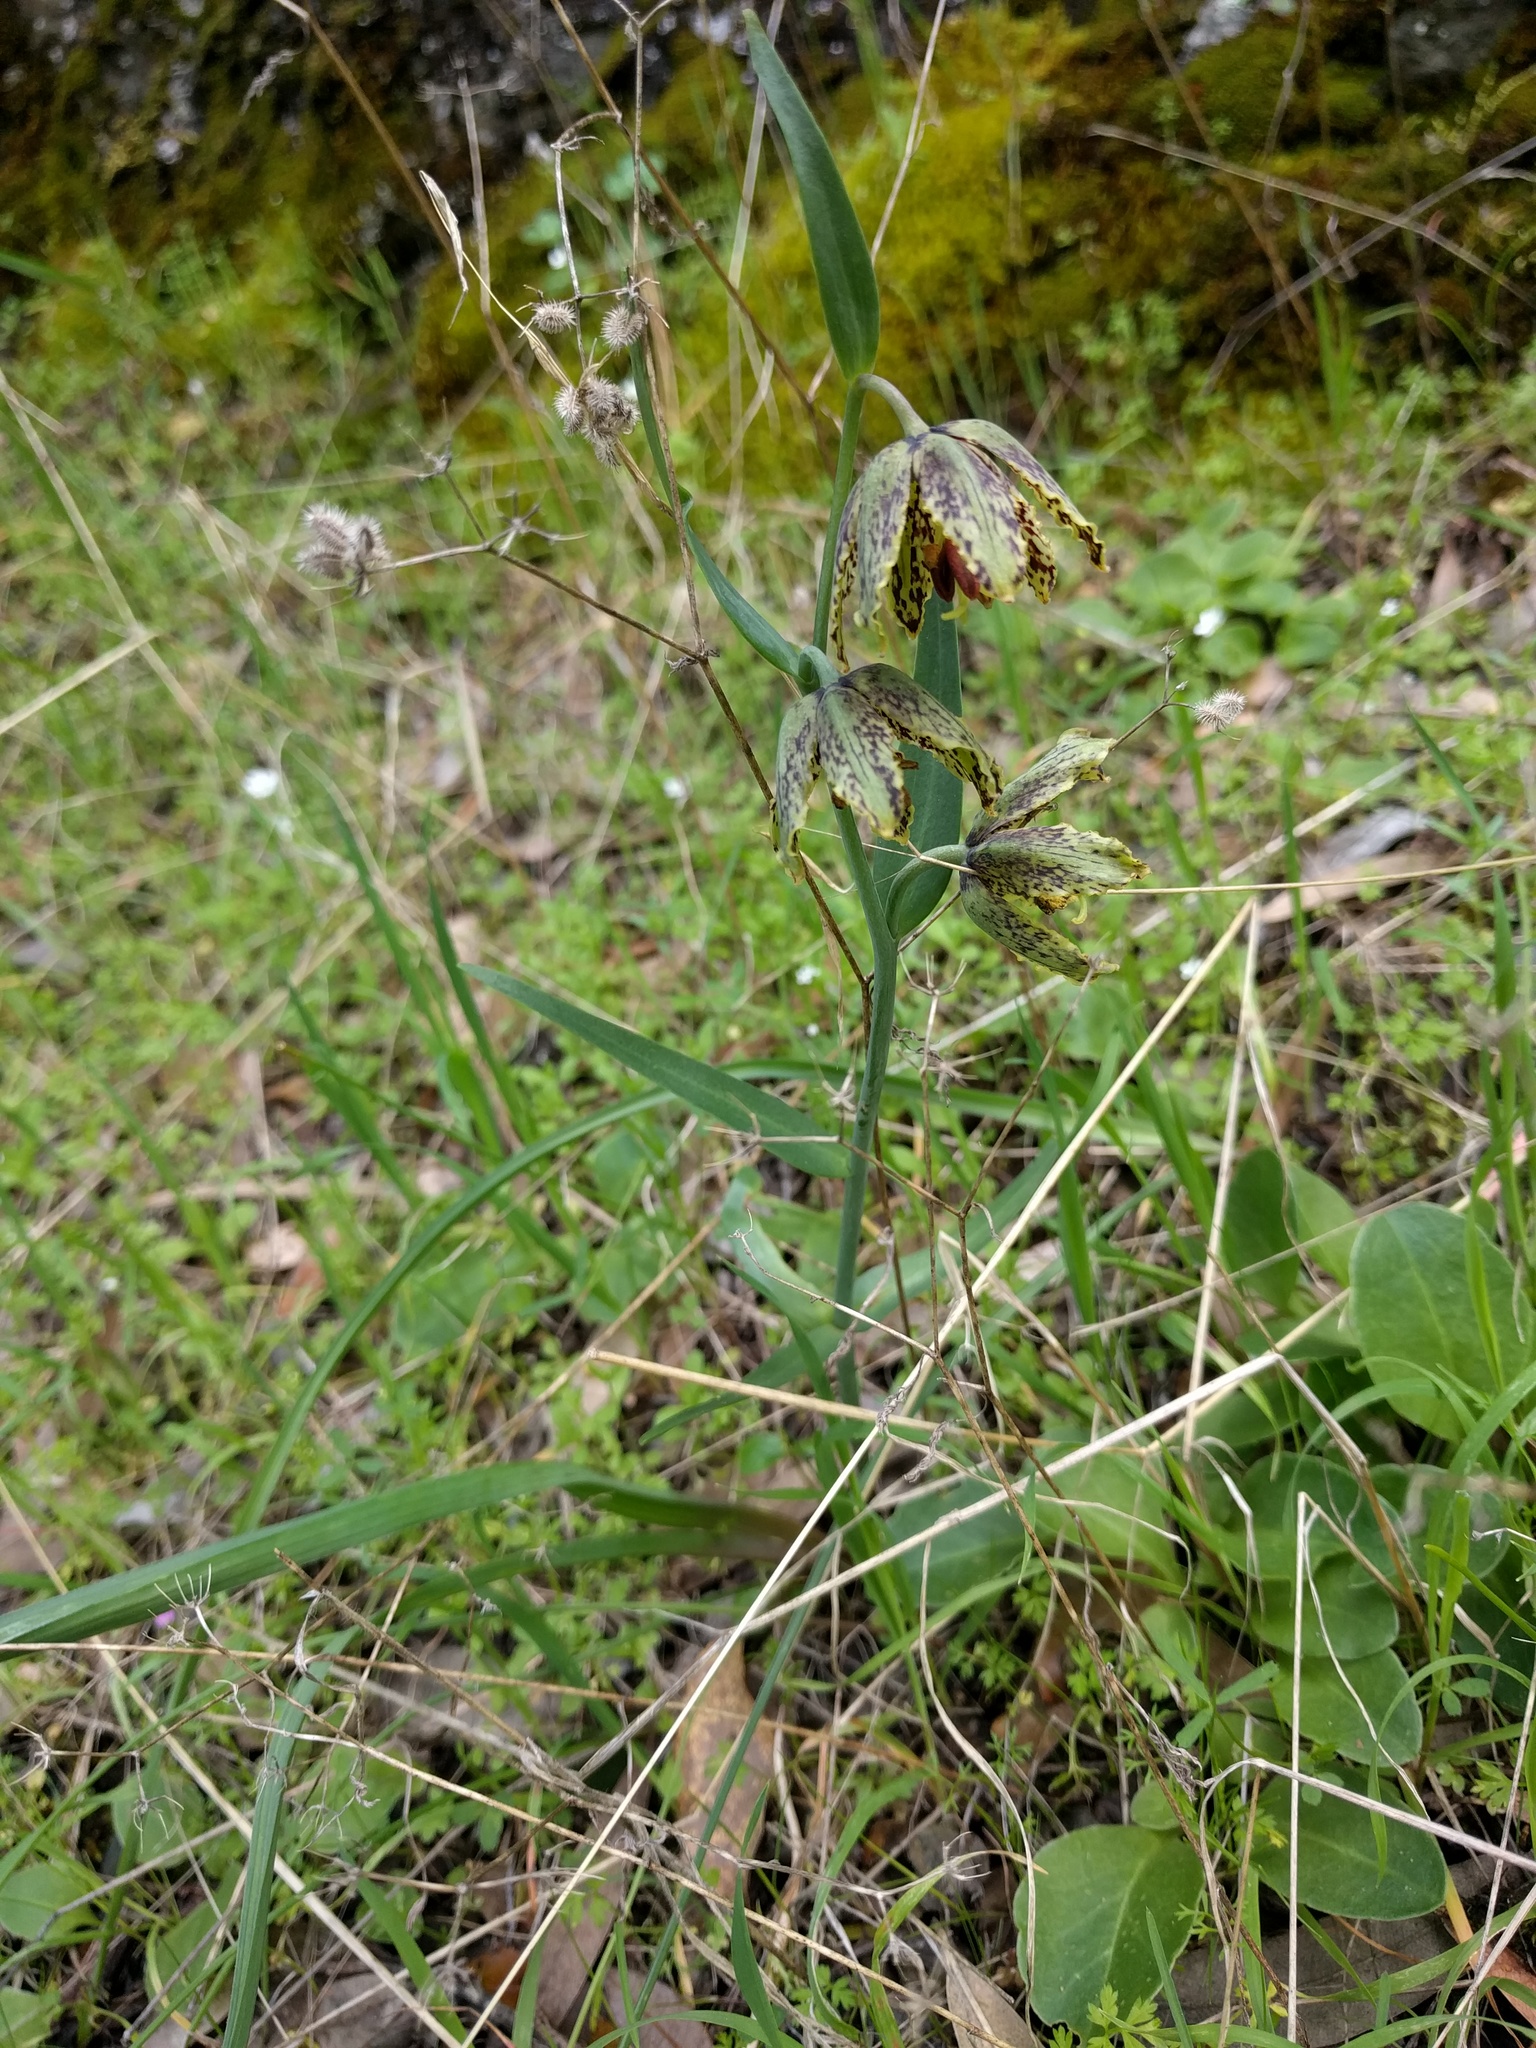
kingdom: Plantae
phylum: Tracheophyta
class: Liliopsida
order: Liliales
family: Liliaceae
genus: Fritillaria
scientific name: Fritillaria affinis
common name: Ojai fritillary
